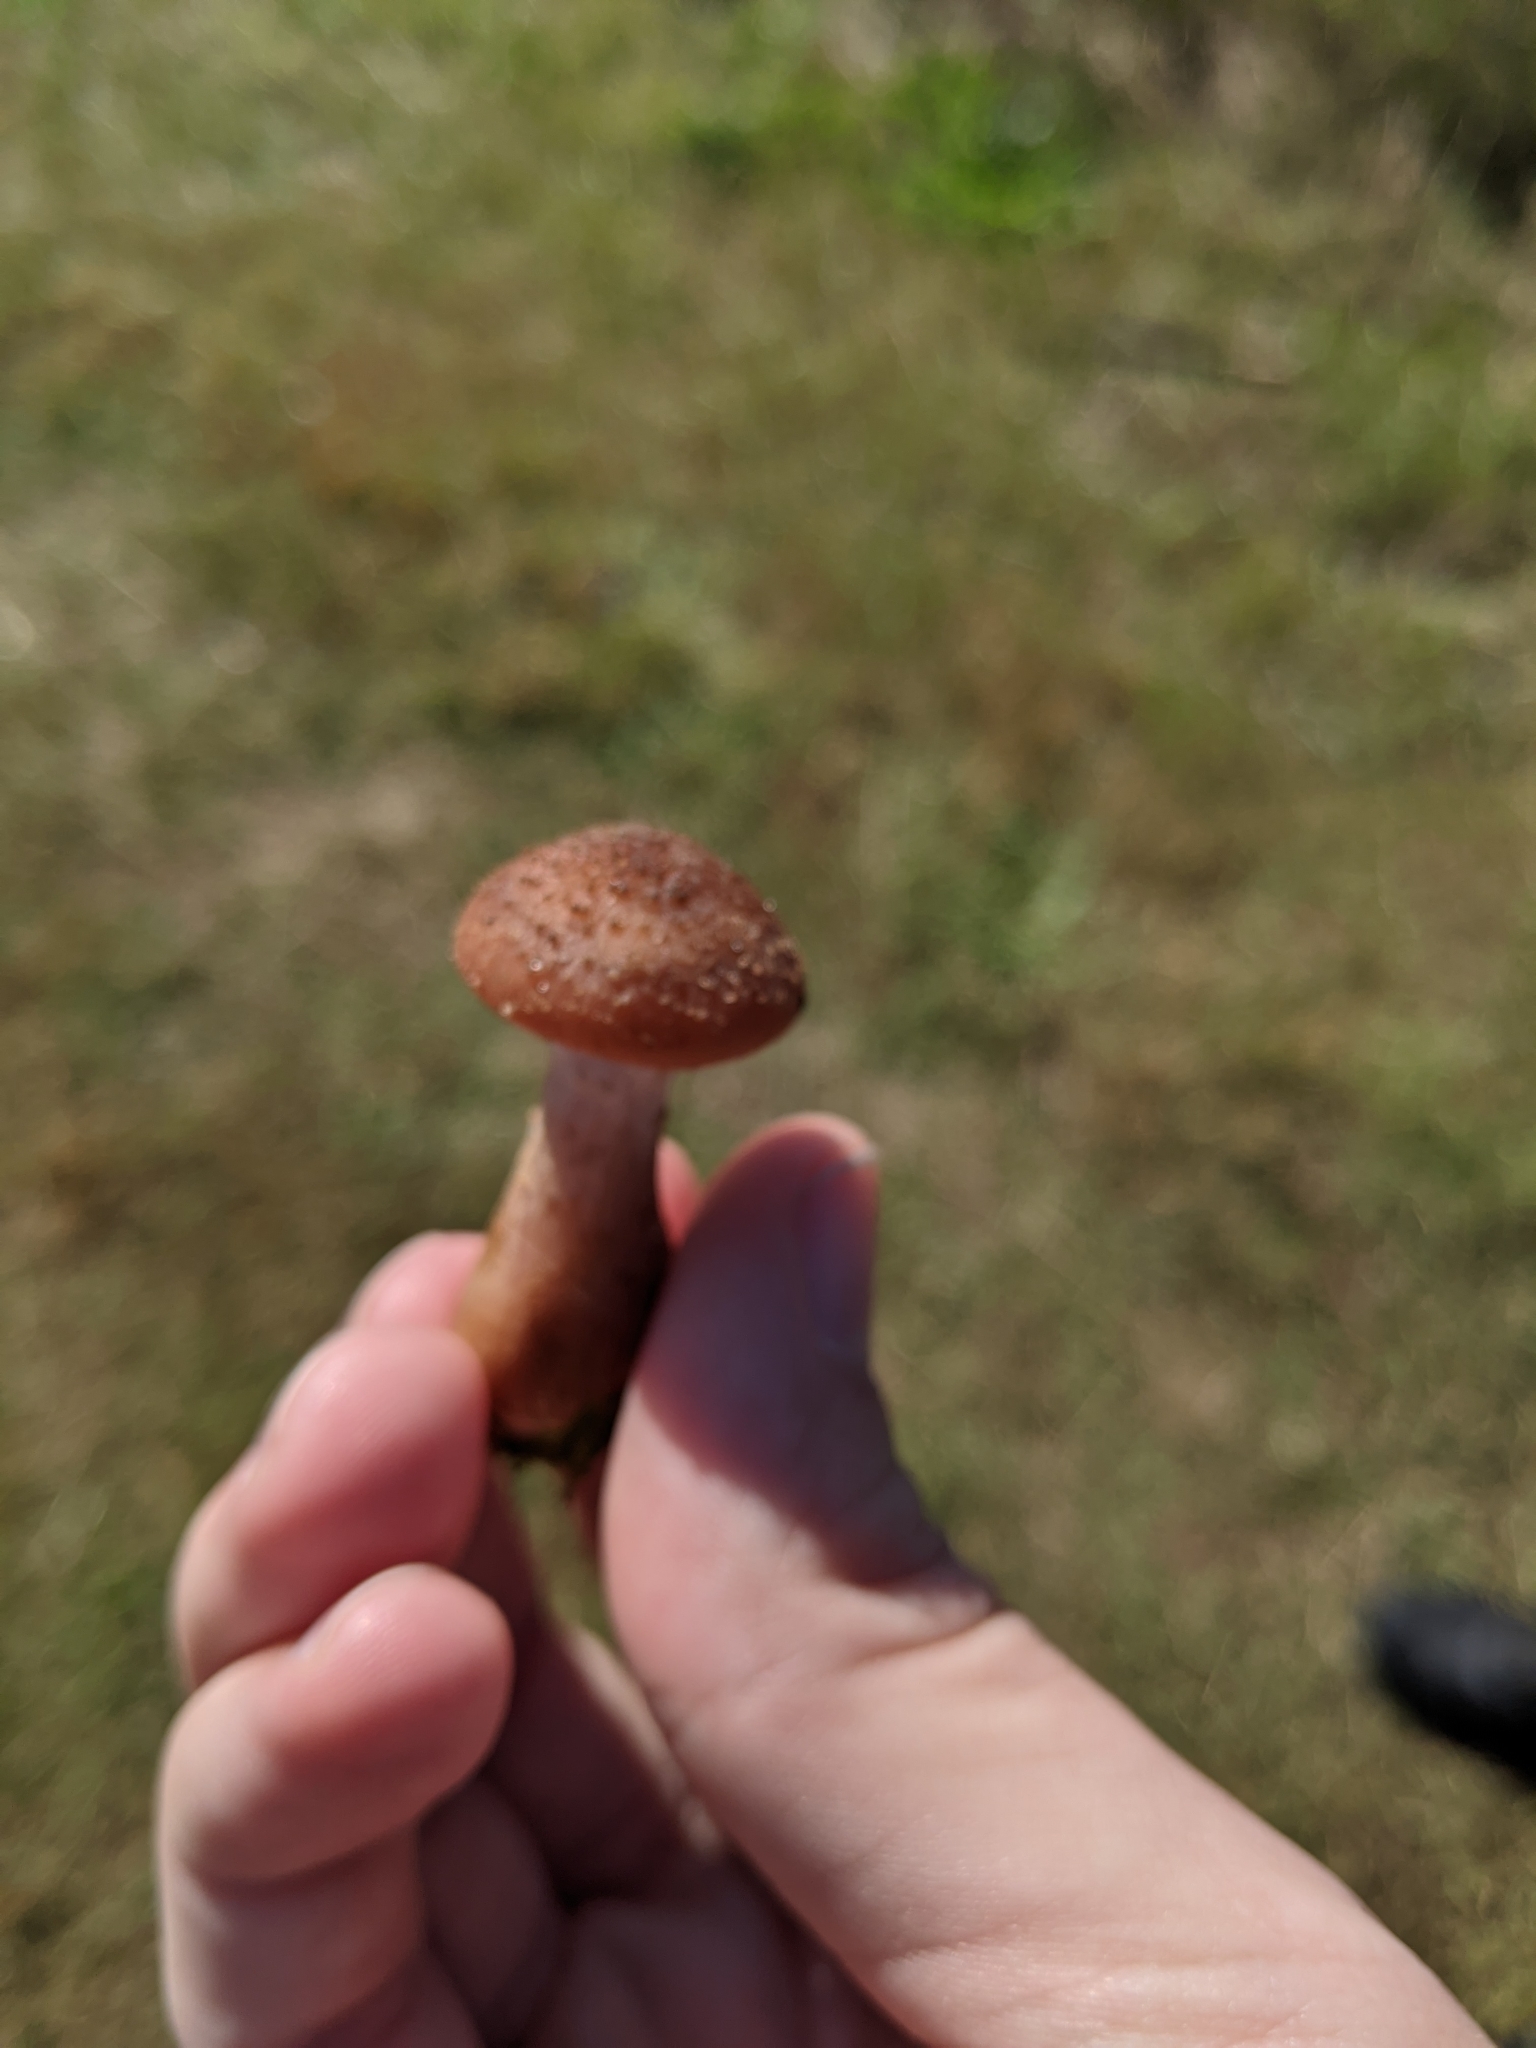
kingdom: Fungi
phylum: Basidiomycota
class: Agaricomycetes
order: Agaricales
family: Physalacriaceae
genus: Armillaria
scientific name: Armillaria gallica
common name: Bulbous honey fungus
